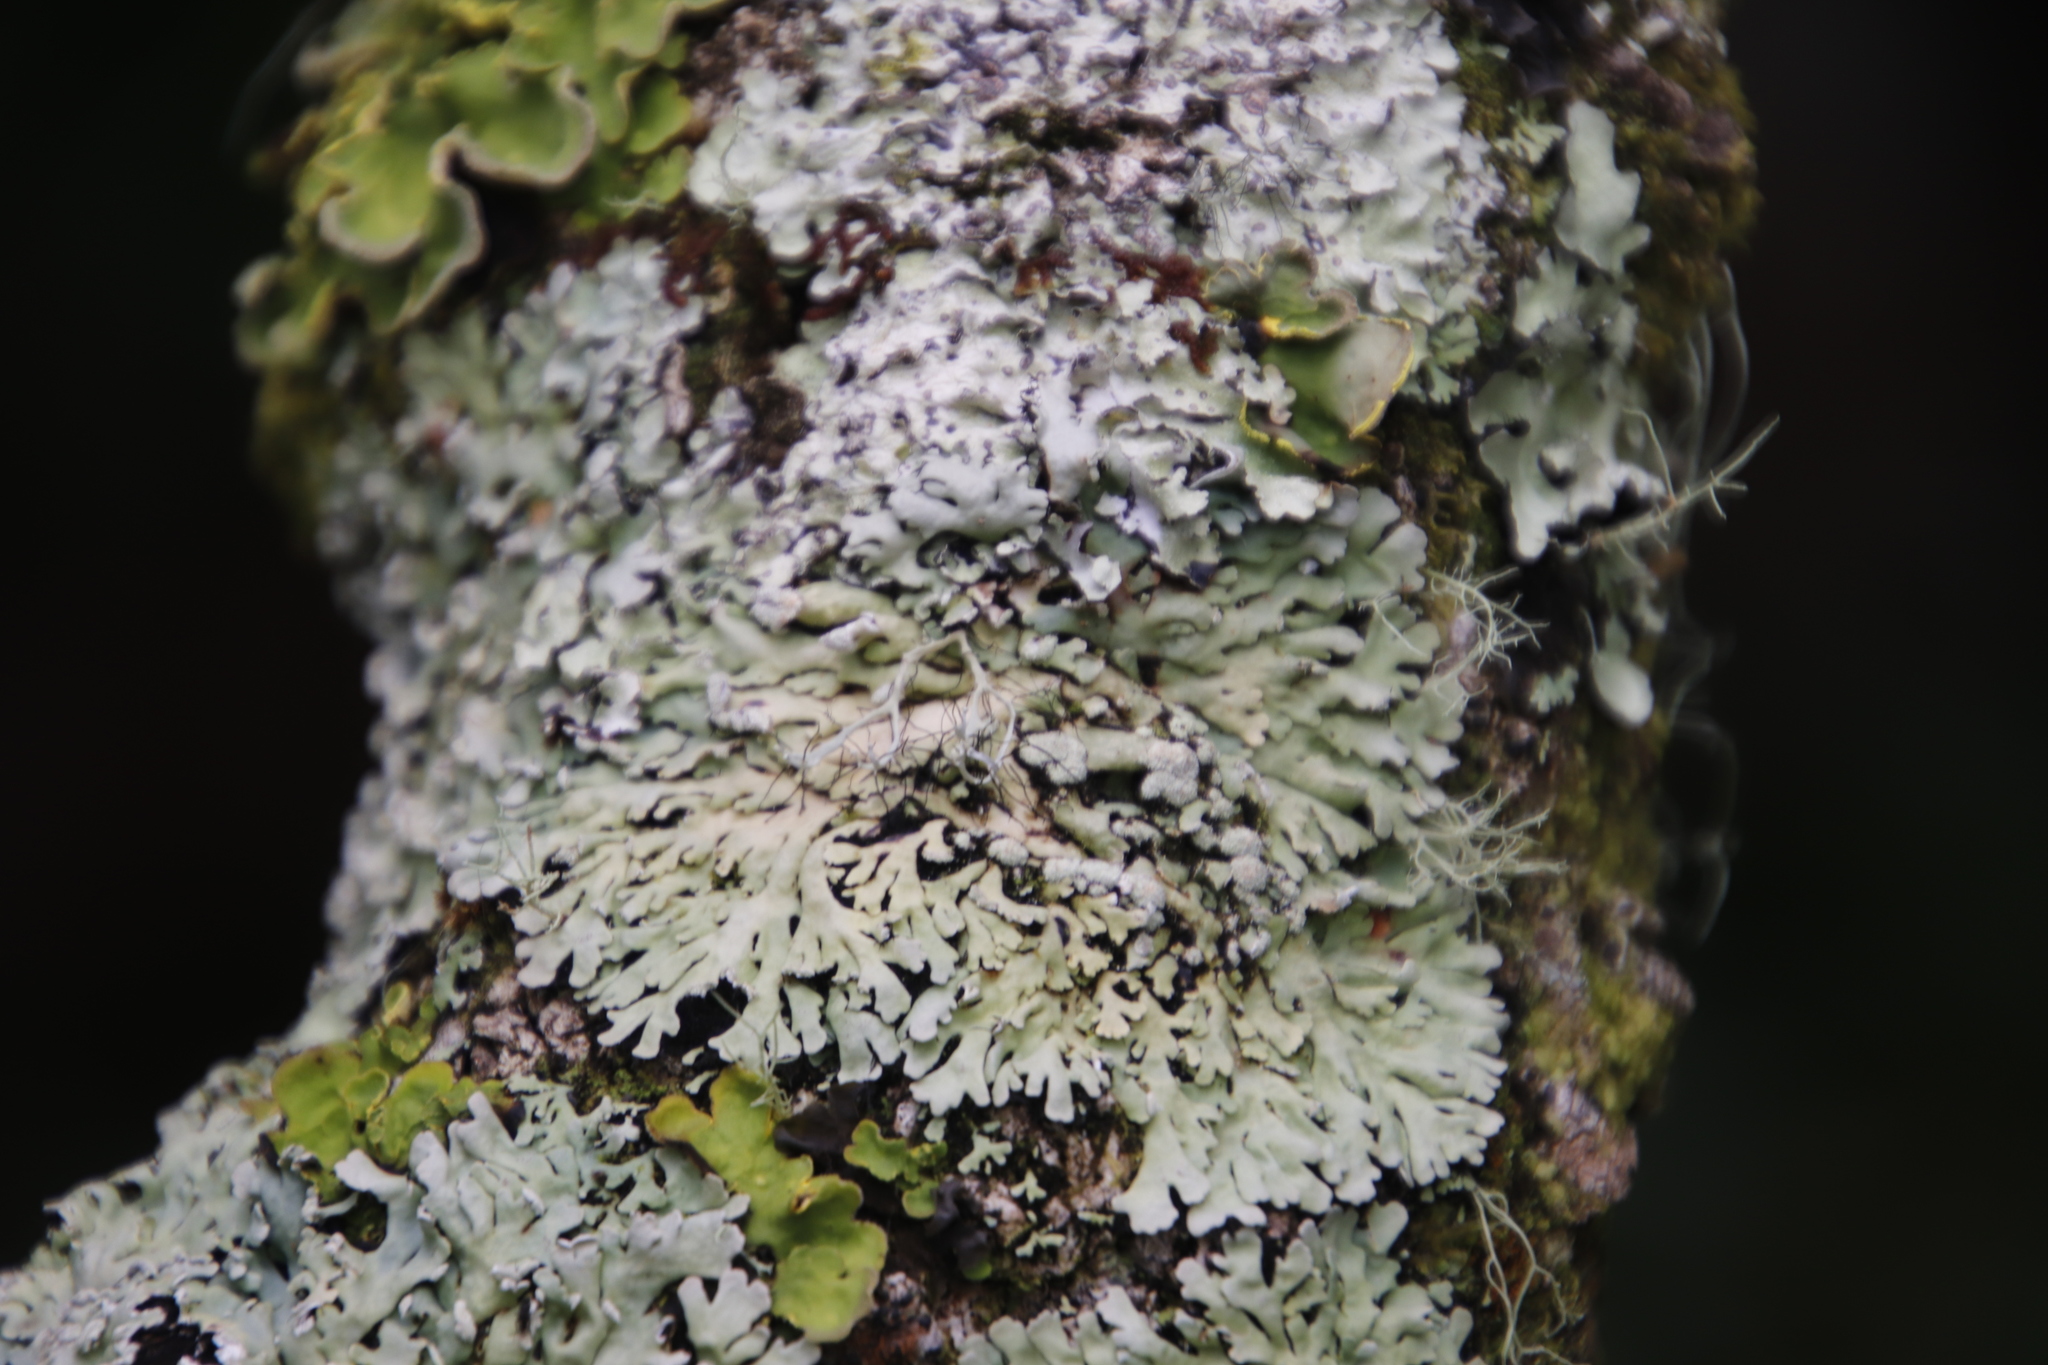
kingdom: Fungi
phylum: Ascomycota
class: Lecanoromycetes
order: Peltigerales
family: Lobariaceae
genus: Pseudocyphellaria
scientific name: Pseudocyphellaria aurata
